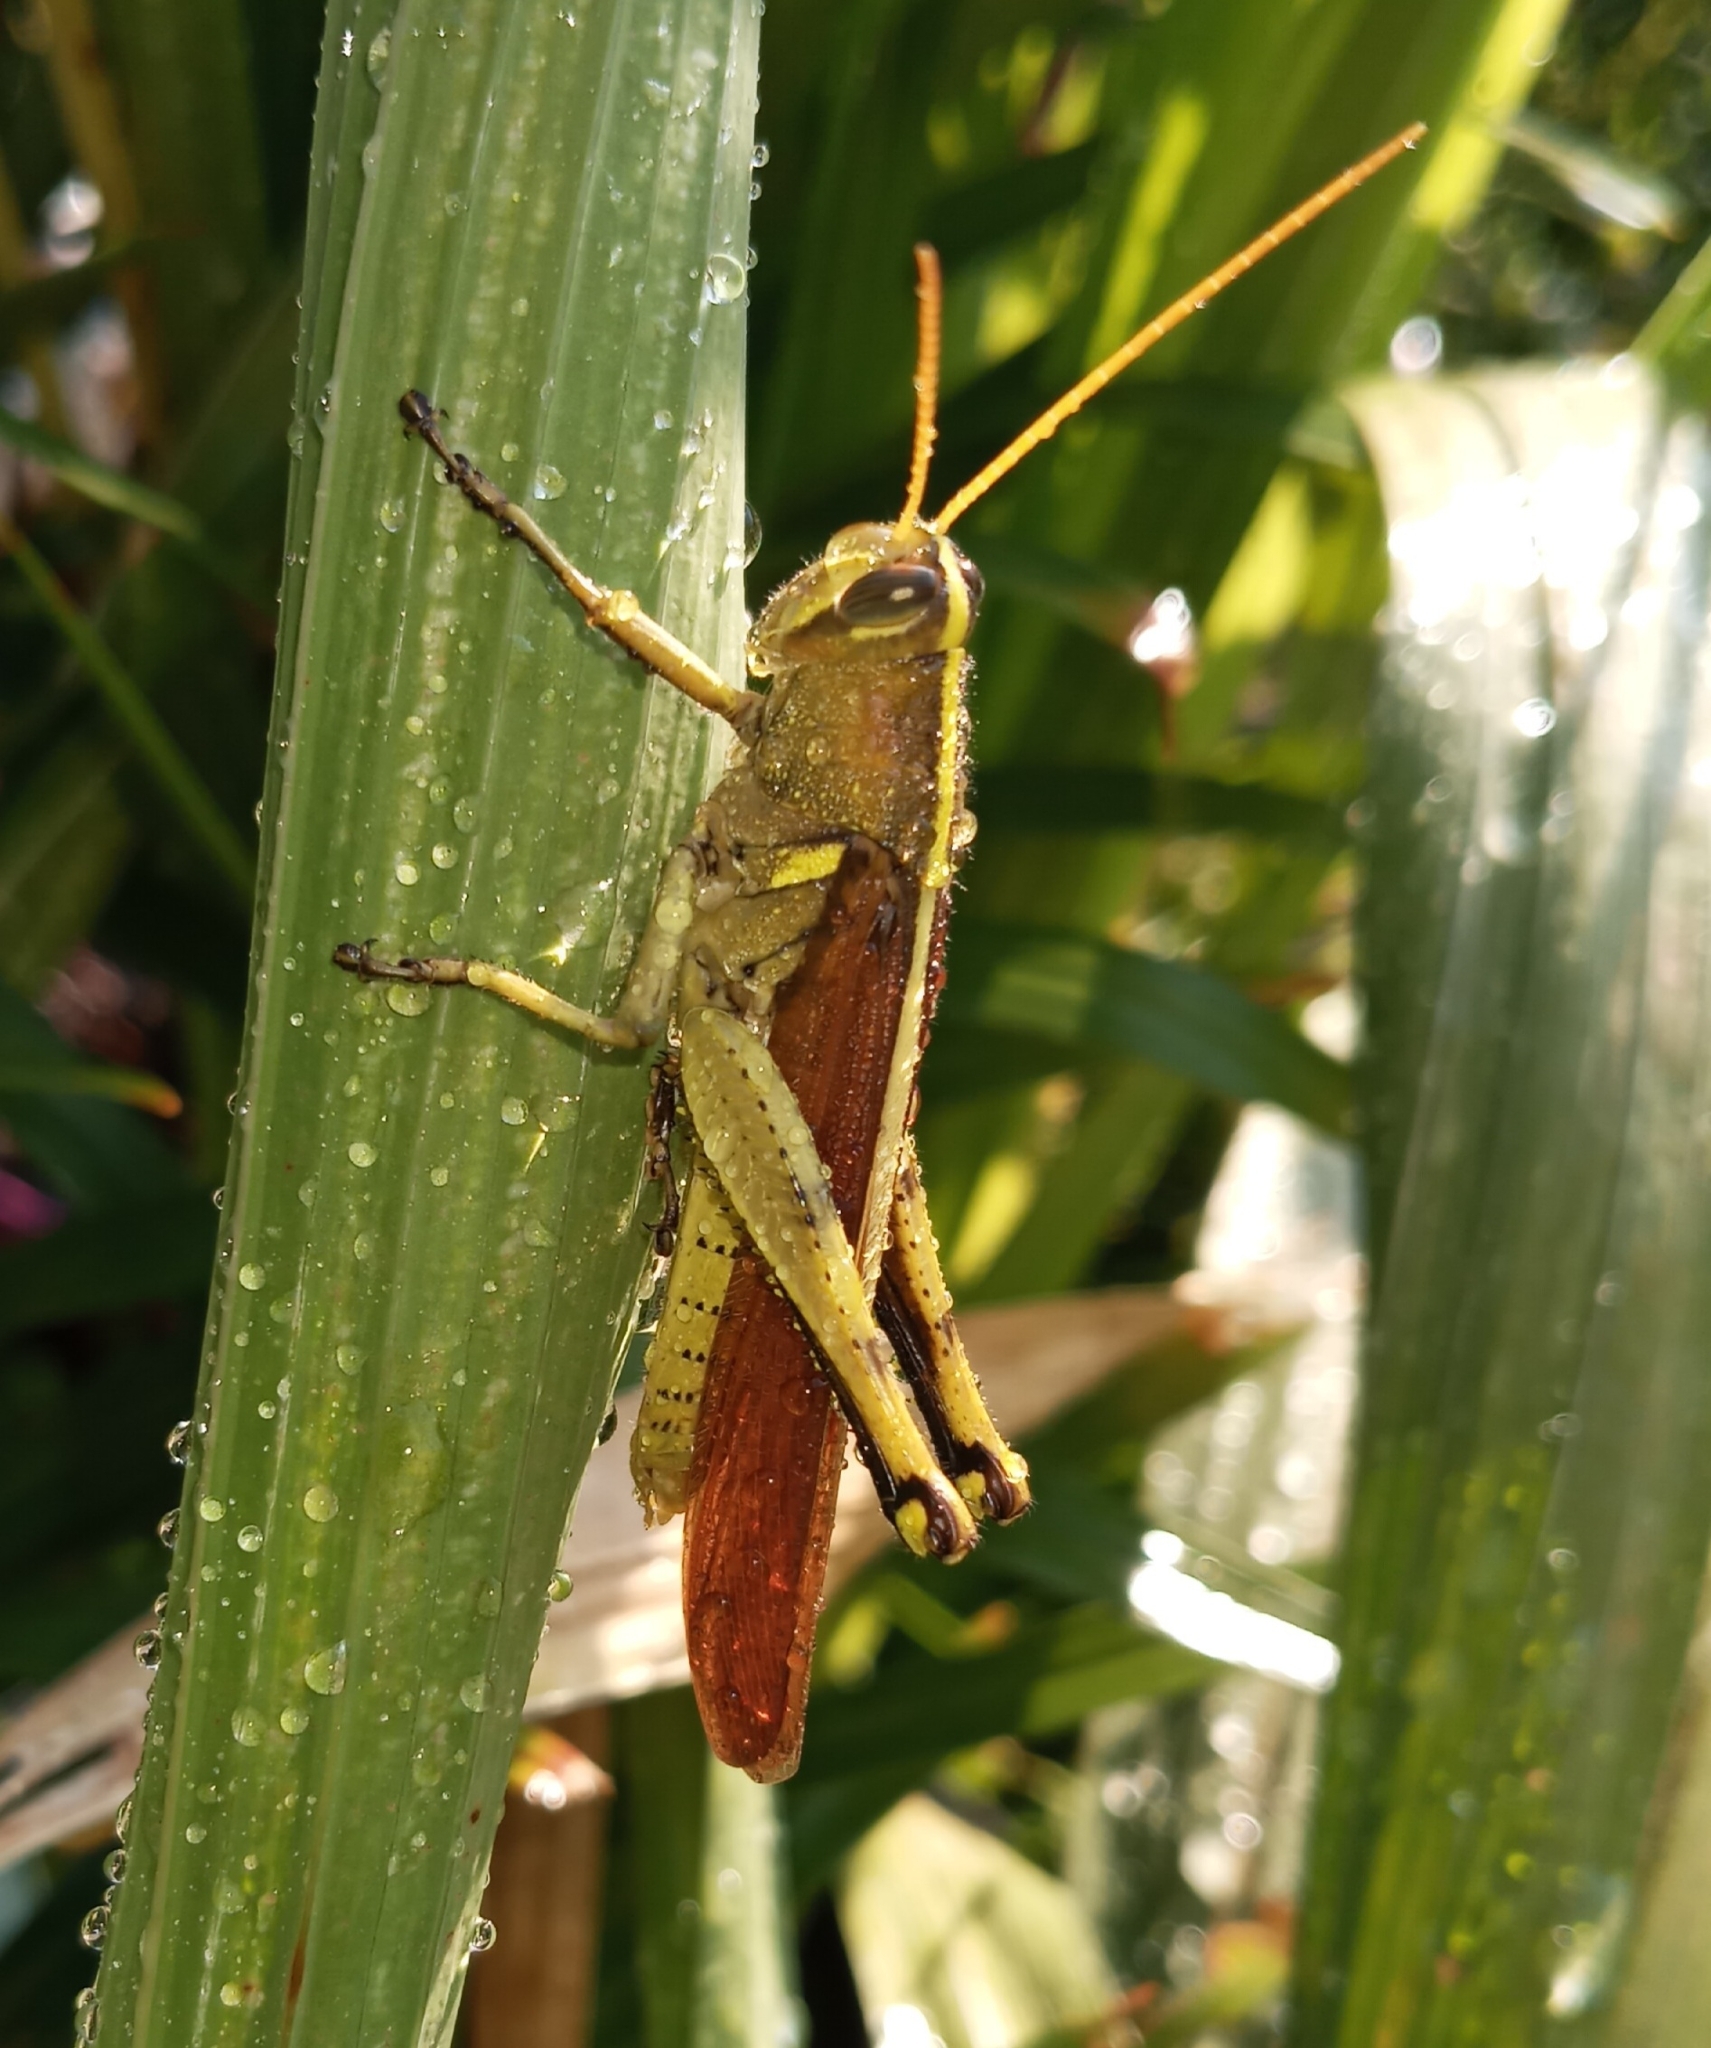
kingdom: Animalia
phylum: Arthropoda
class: Insecta
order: Orthoptera
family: Acrididae
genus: Schistocerca
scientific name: Schistocerca obscura
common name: Obscure bird grasshopper
